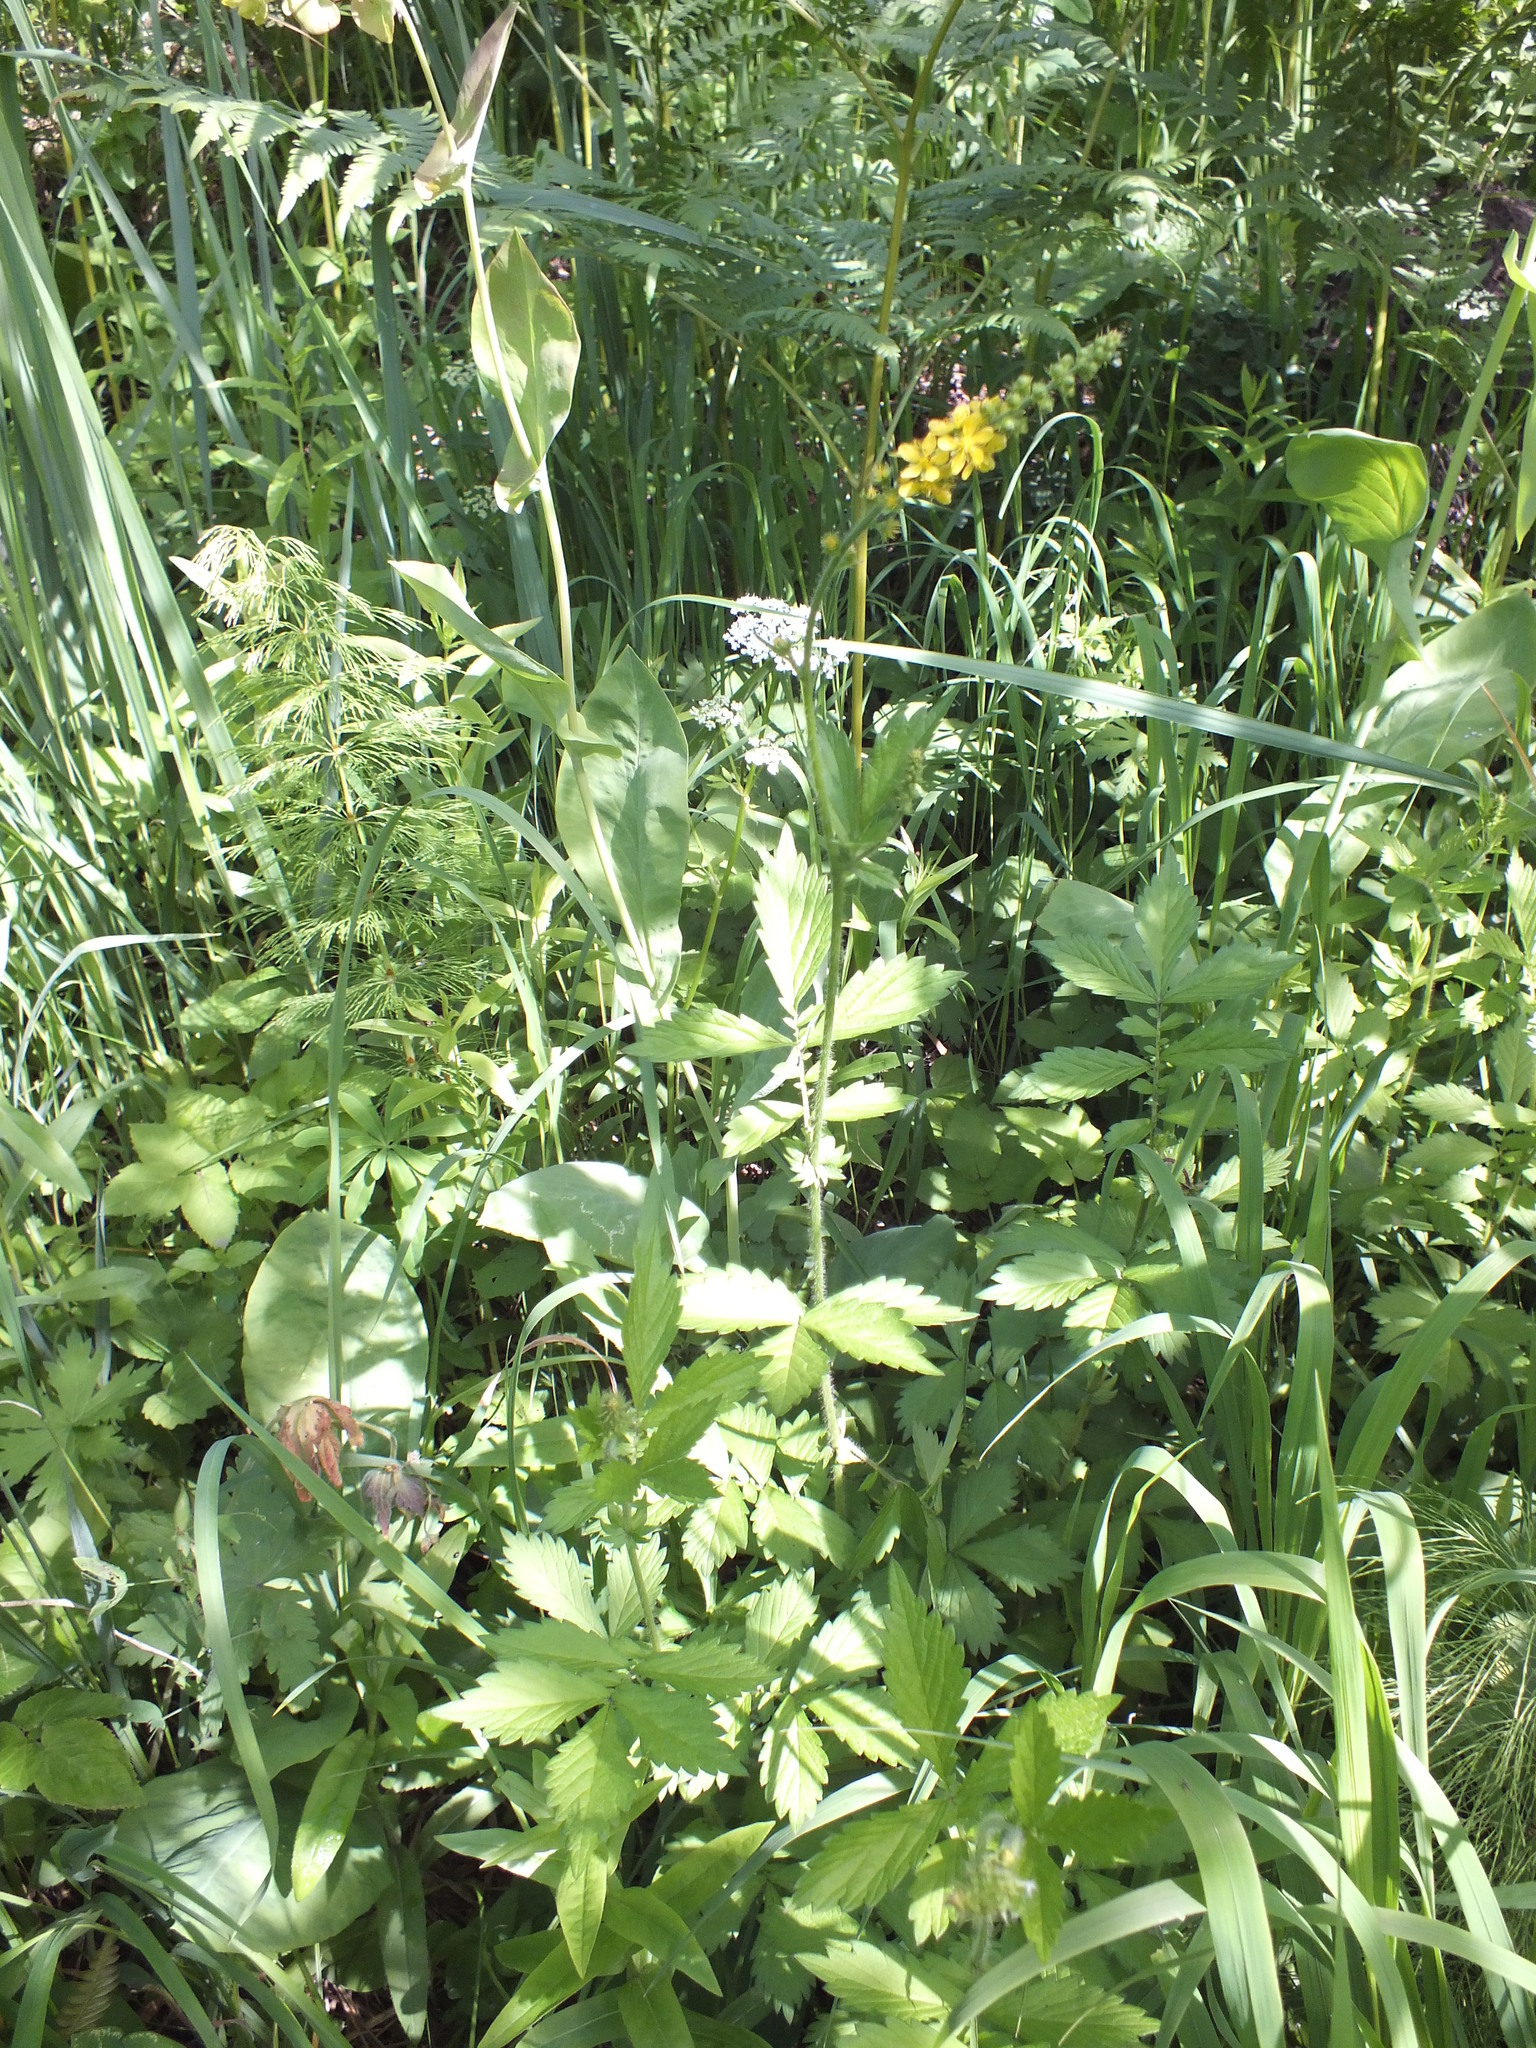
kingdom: Plantae
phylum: Tracheophyta
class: Magnoliopsida
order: Rosales
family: Rosaceae
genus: Agrimonia
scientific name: Agrimonia pilosa
